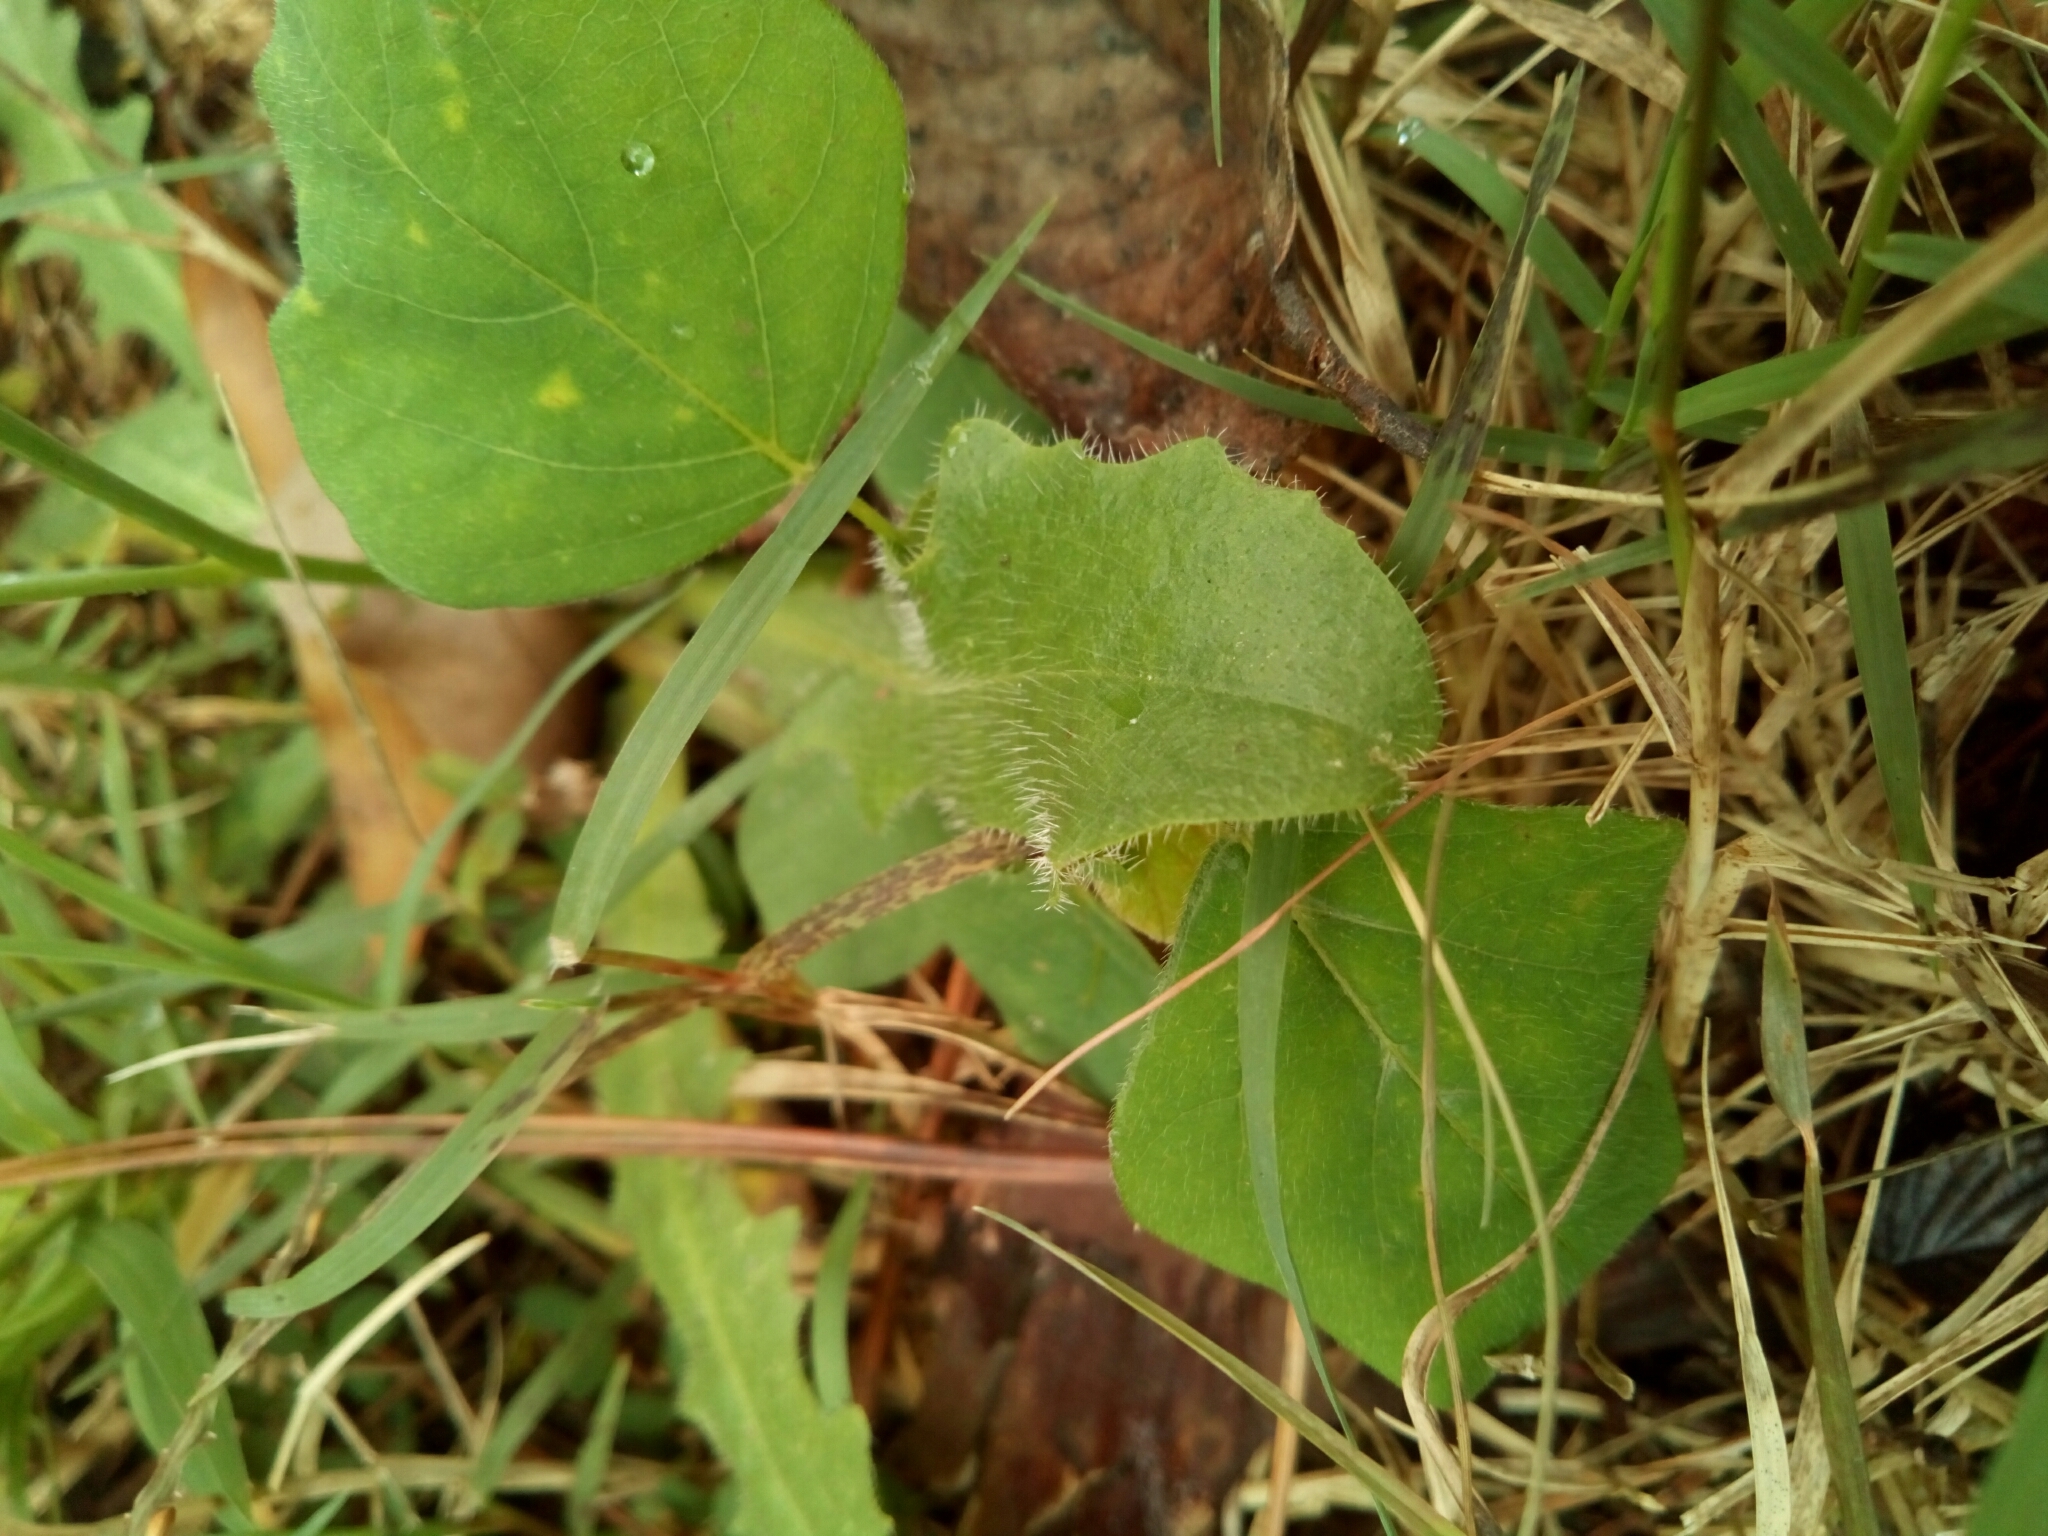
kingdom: Plantae
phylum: Tracheophyta
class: Magnoliopsida
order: Asterales
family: Asteraceae
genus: Hypochaeris
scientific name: Hypochaeris radicata
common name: Flatweed
